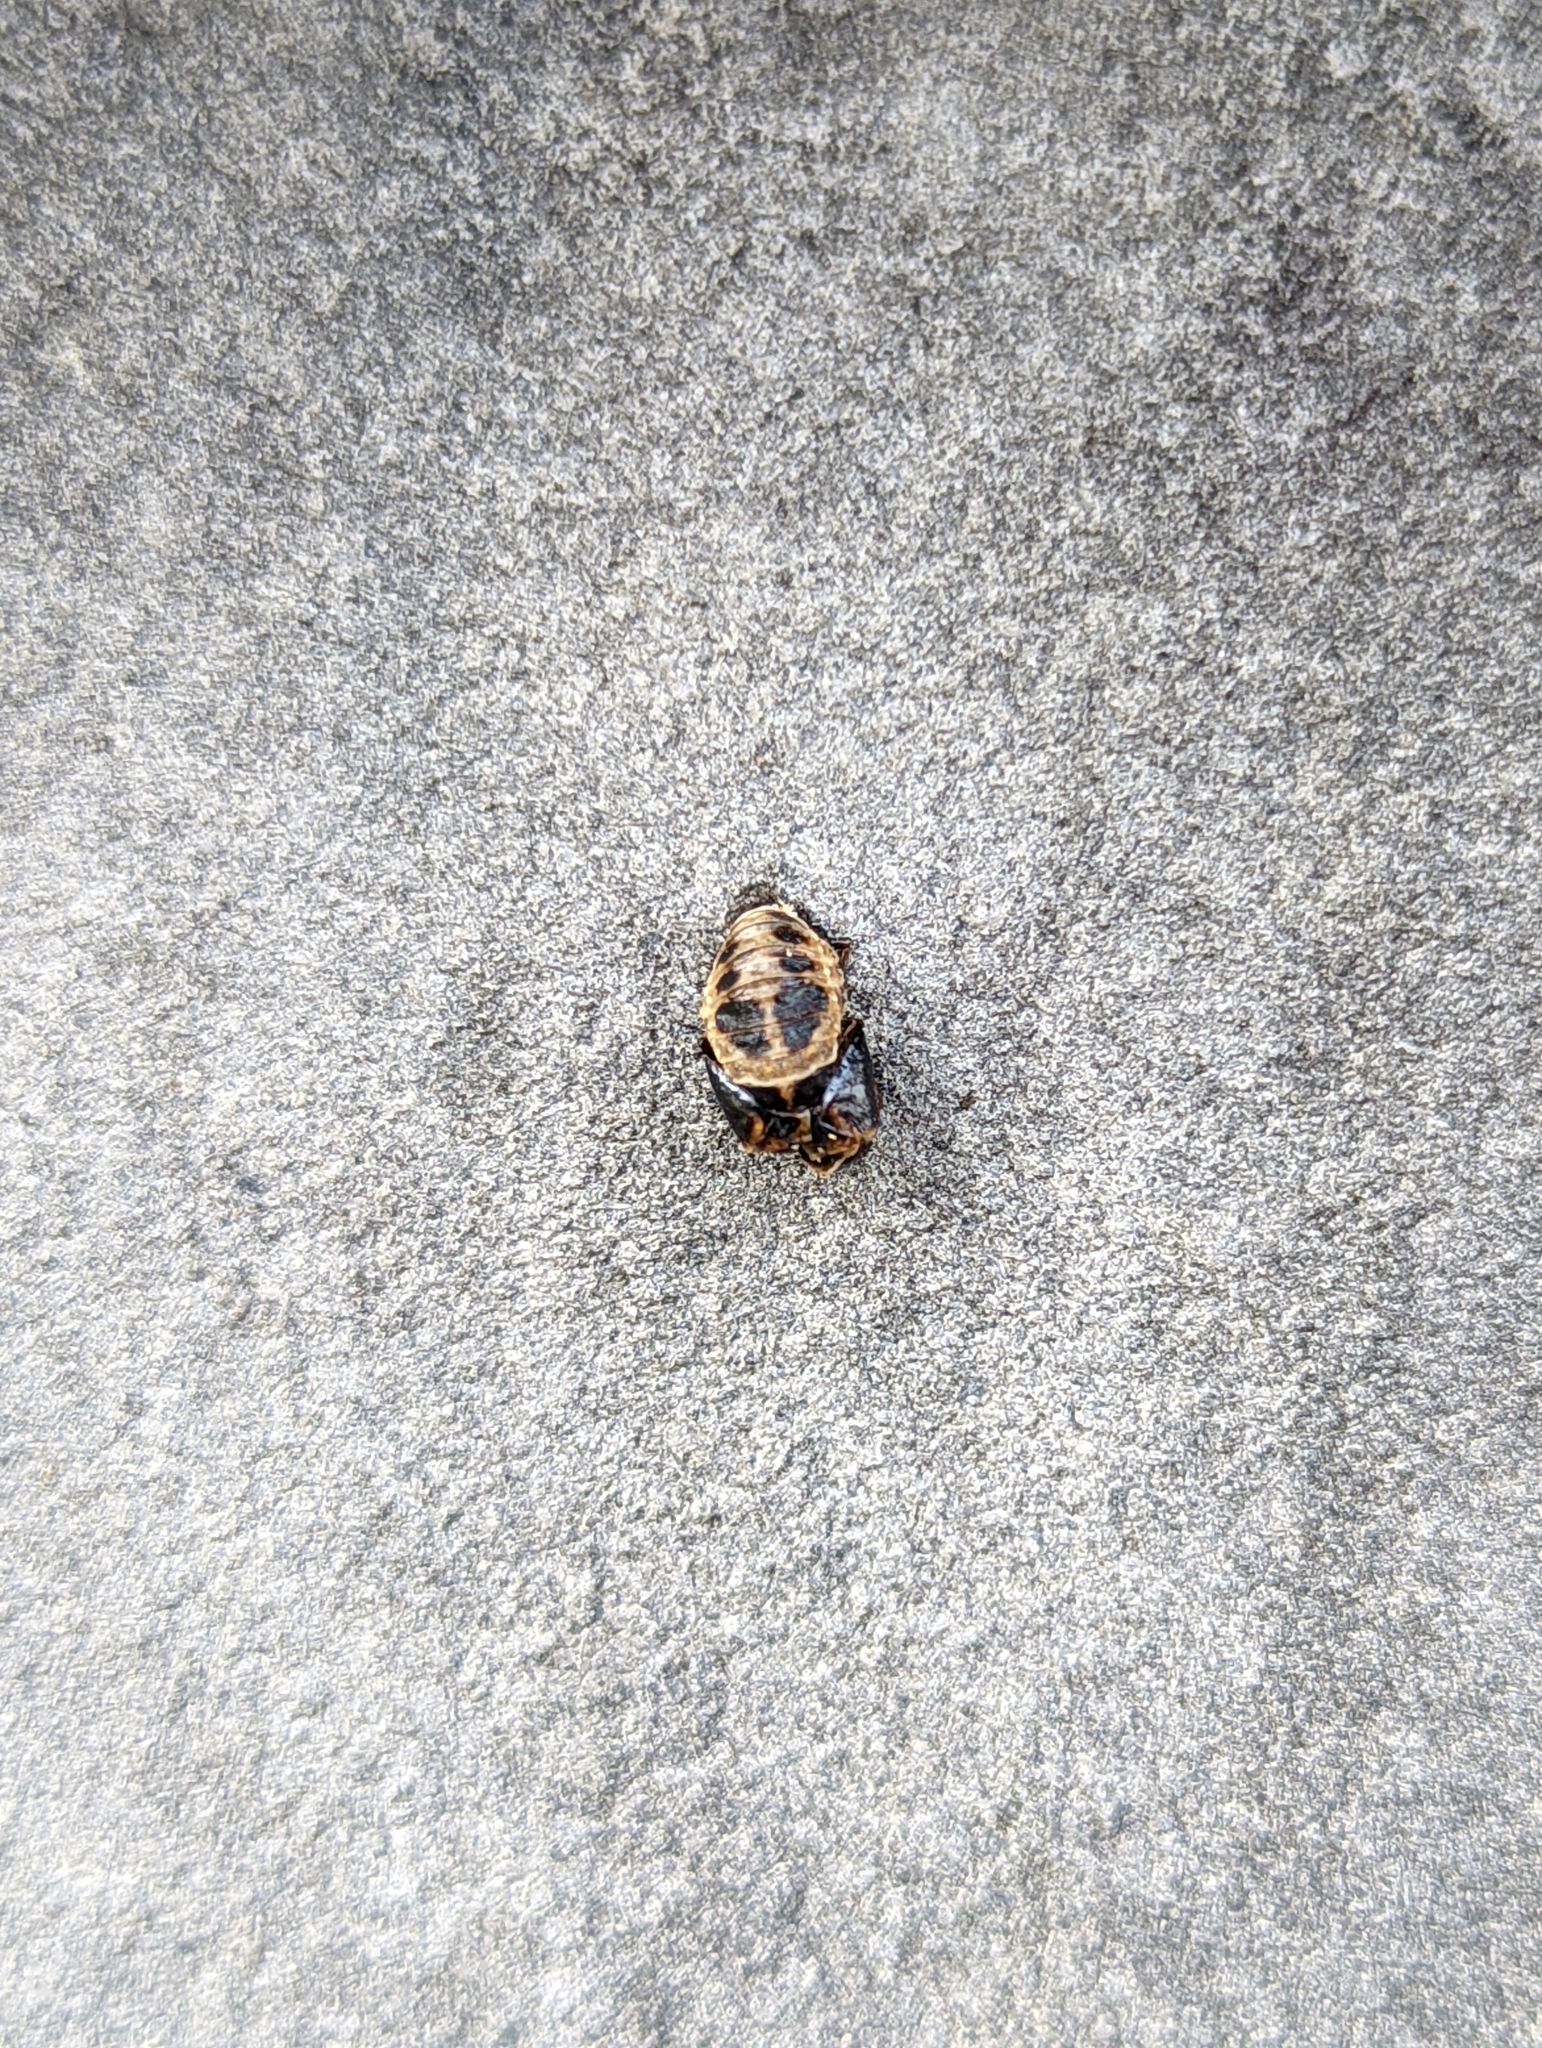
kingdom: Animalia
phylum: Arthropoda
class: Insecta
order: Coleoptera
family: Coccinellidae
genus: Harmonia
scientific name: Harmonia axyridis
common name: Harlequin ladybird
